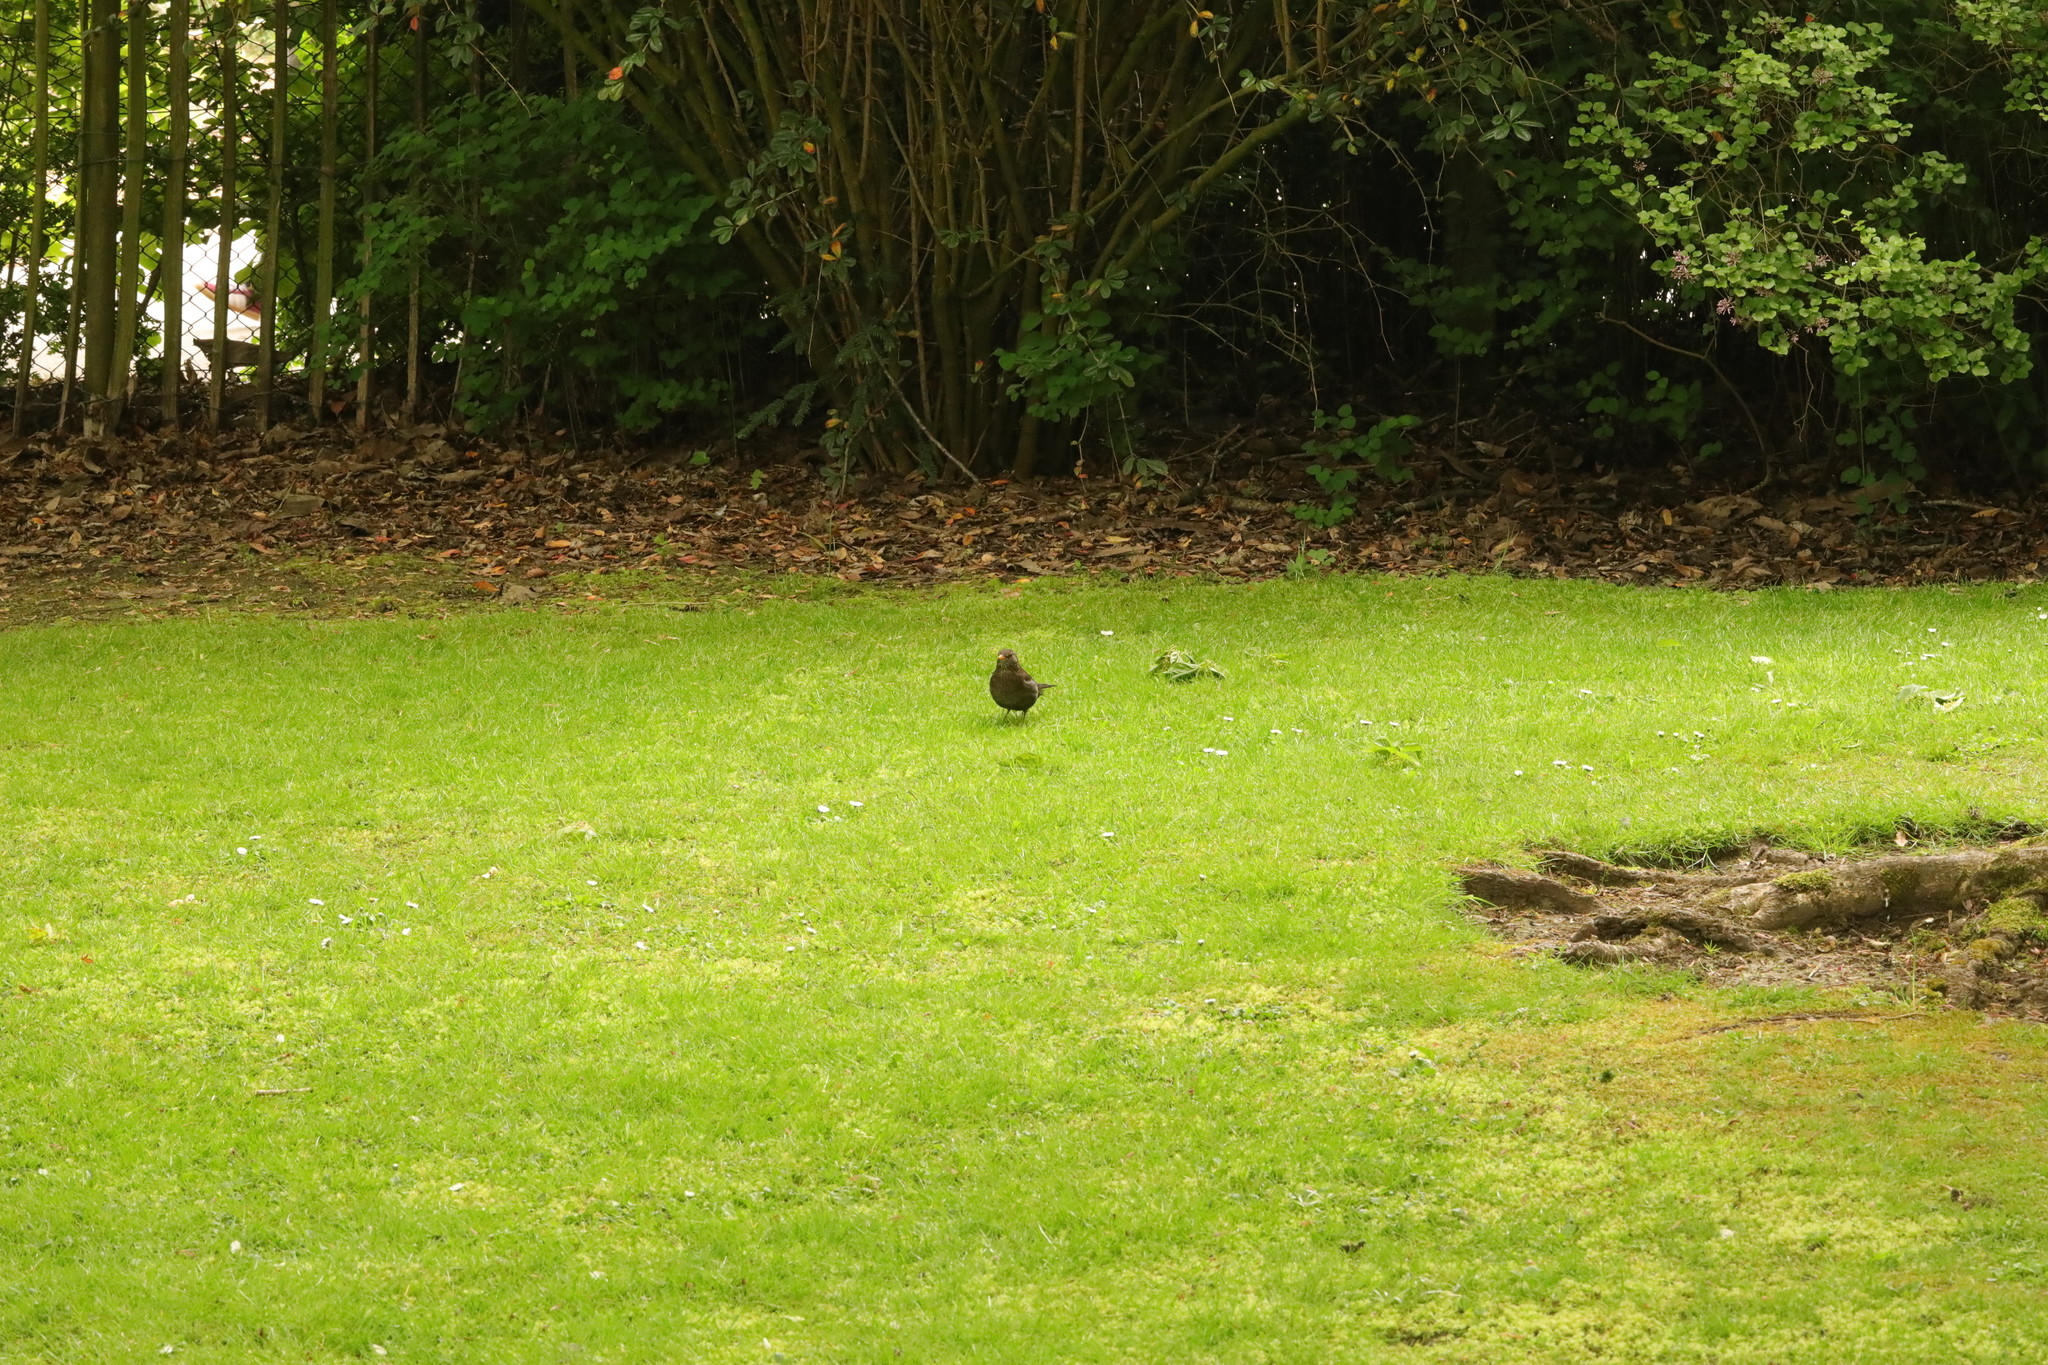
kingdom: Animalia
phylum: Chordata
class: Aves
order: Passeriformes
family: Turdidae
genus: Turdus
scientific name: Turdus merula
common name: Common blackbird
